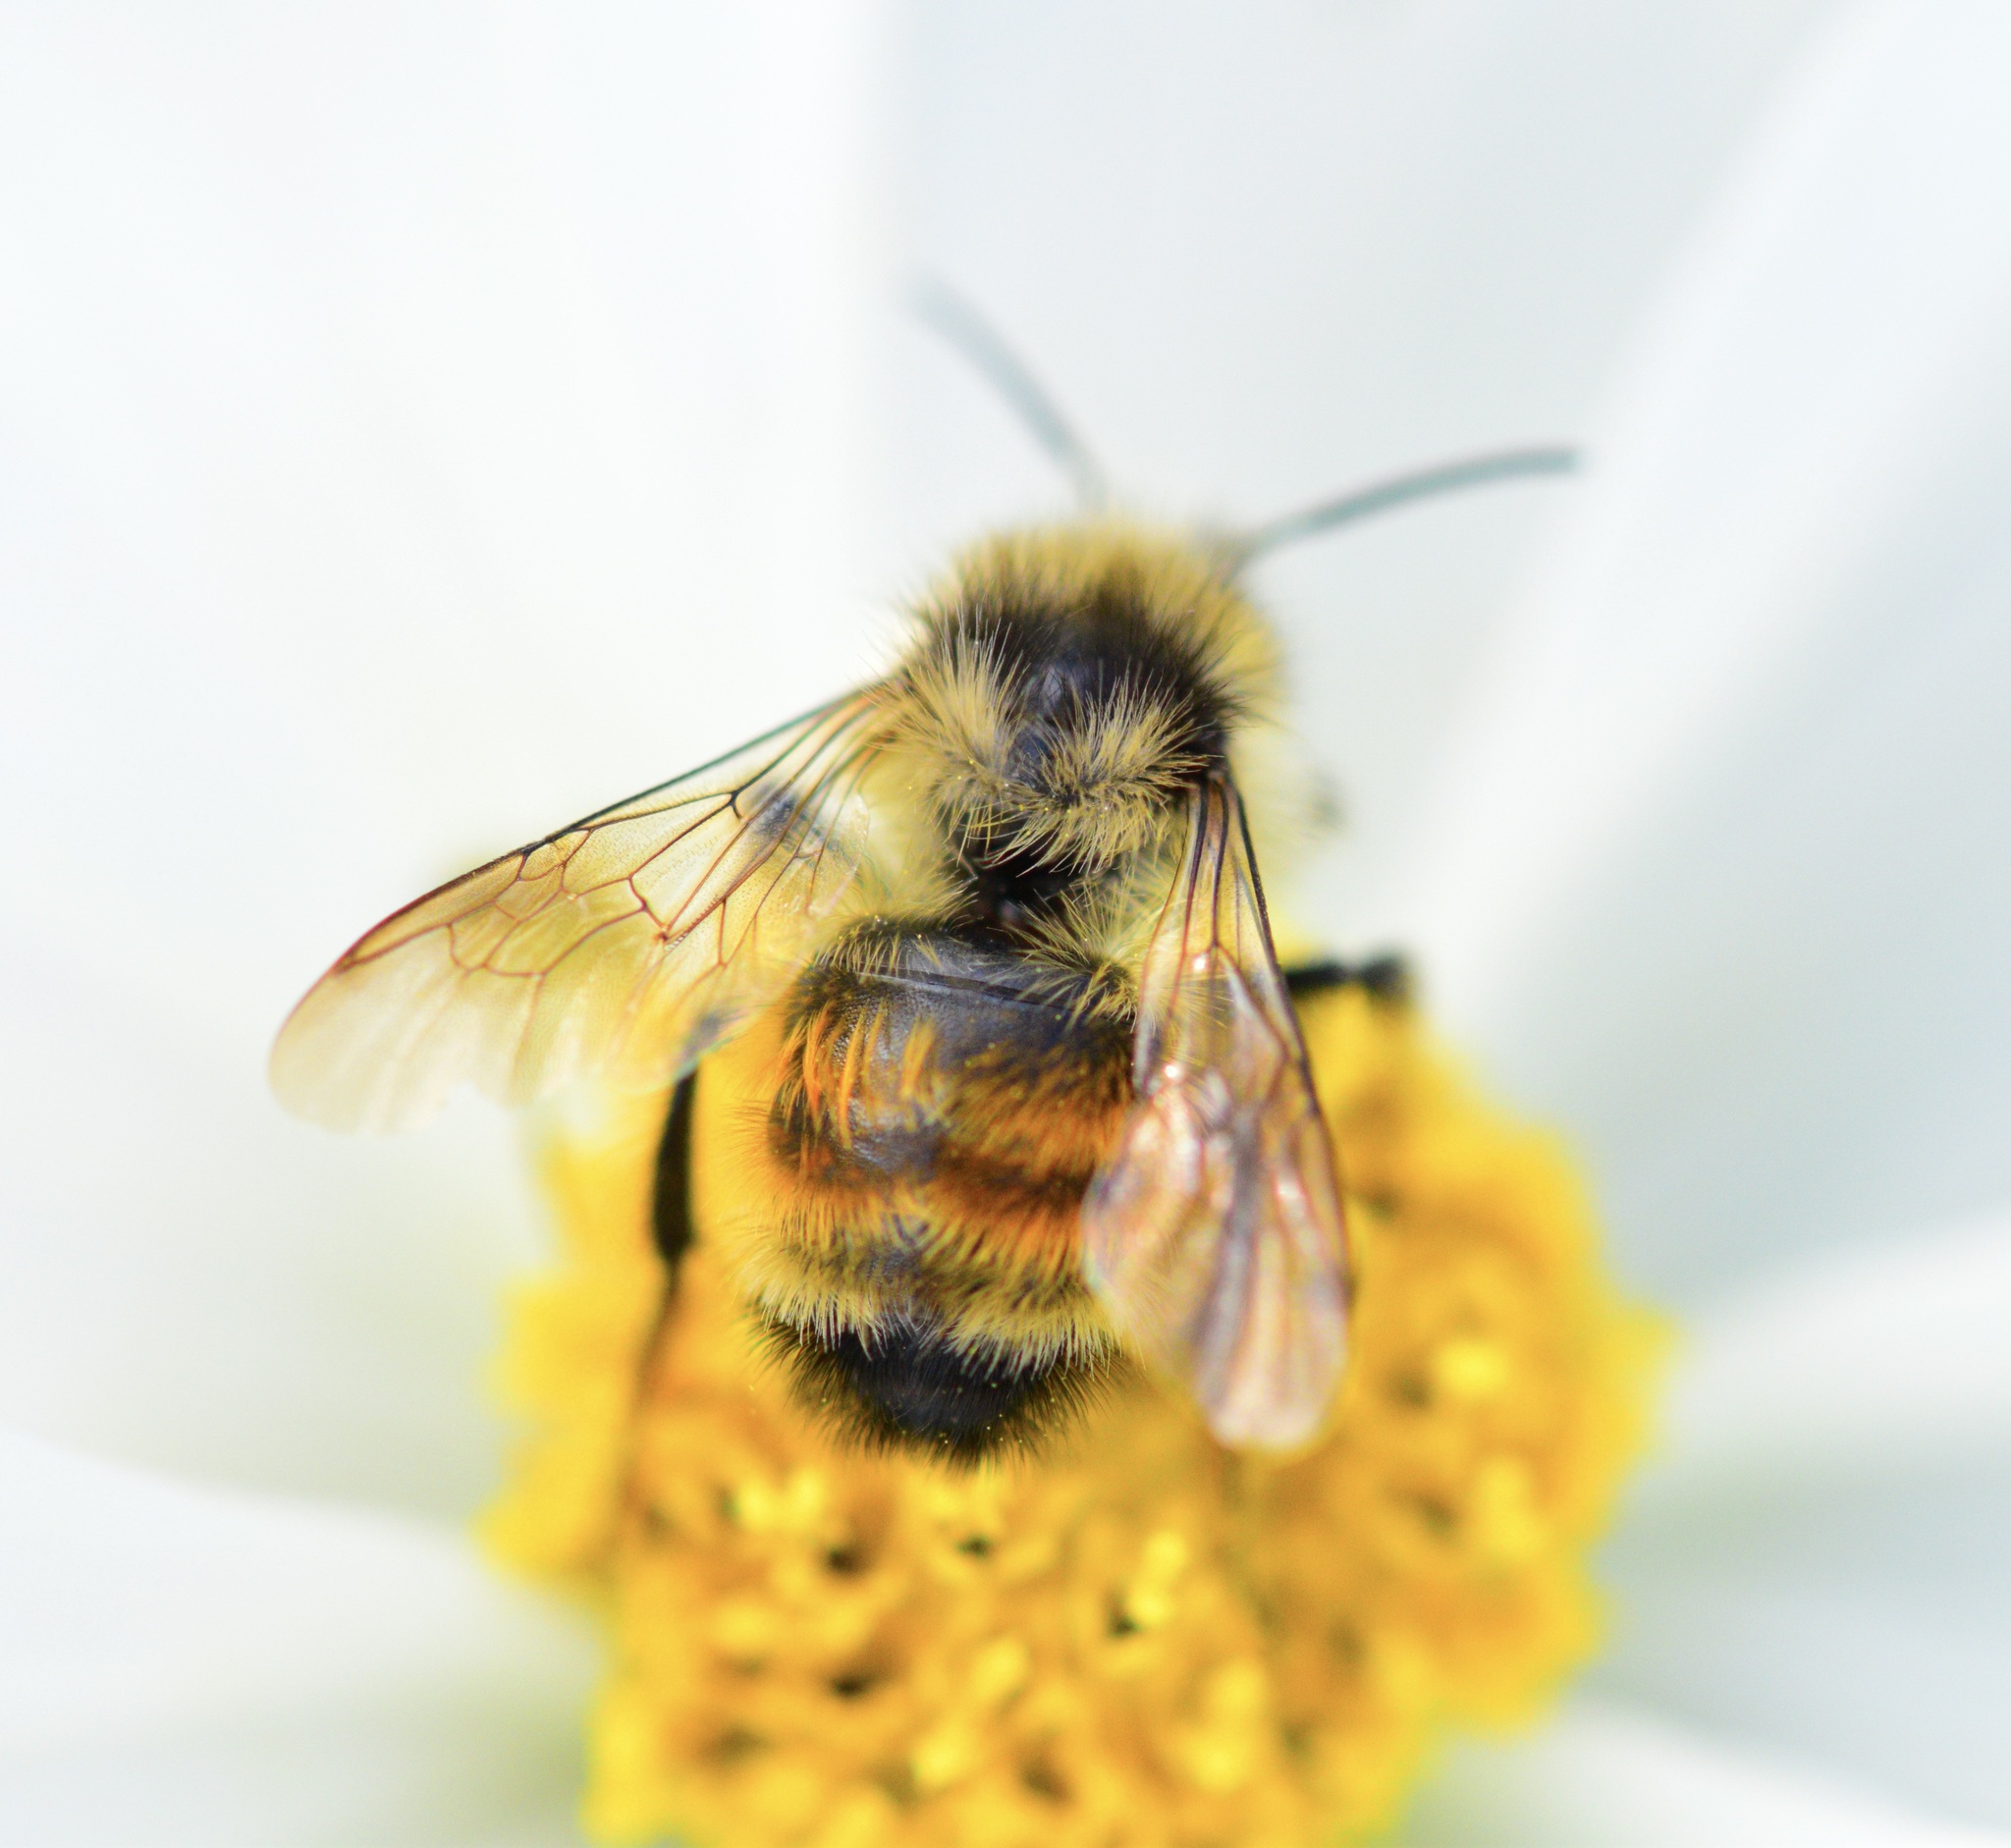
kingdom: Animalia
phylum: Arthropoda
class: Insecta
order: Hymenoptera
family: Apidae
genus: Bombus
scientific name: Bombus ternarius
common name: Tri-colored bumble bee
